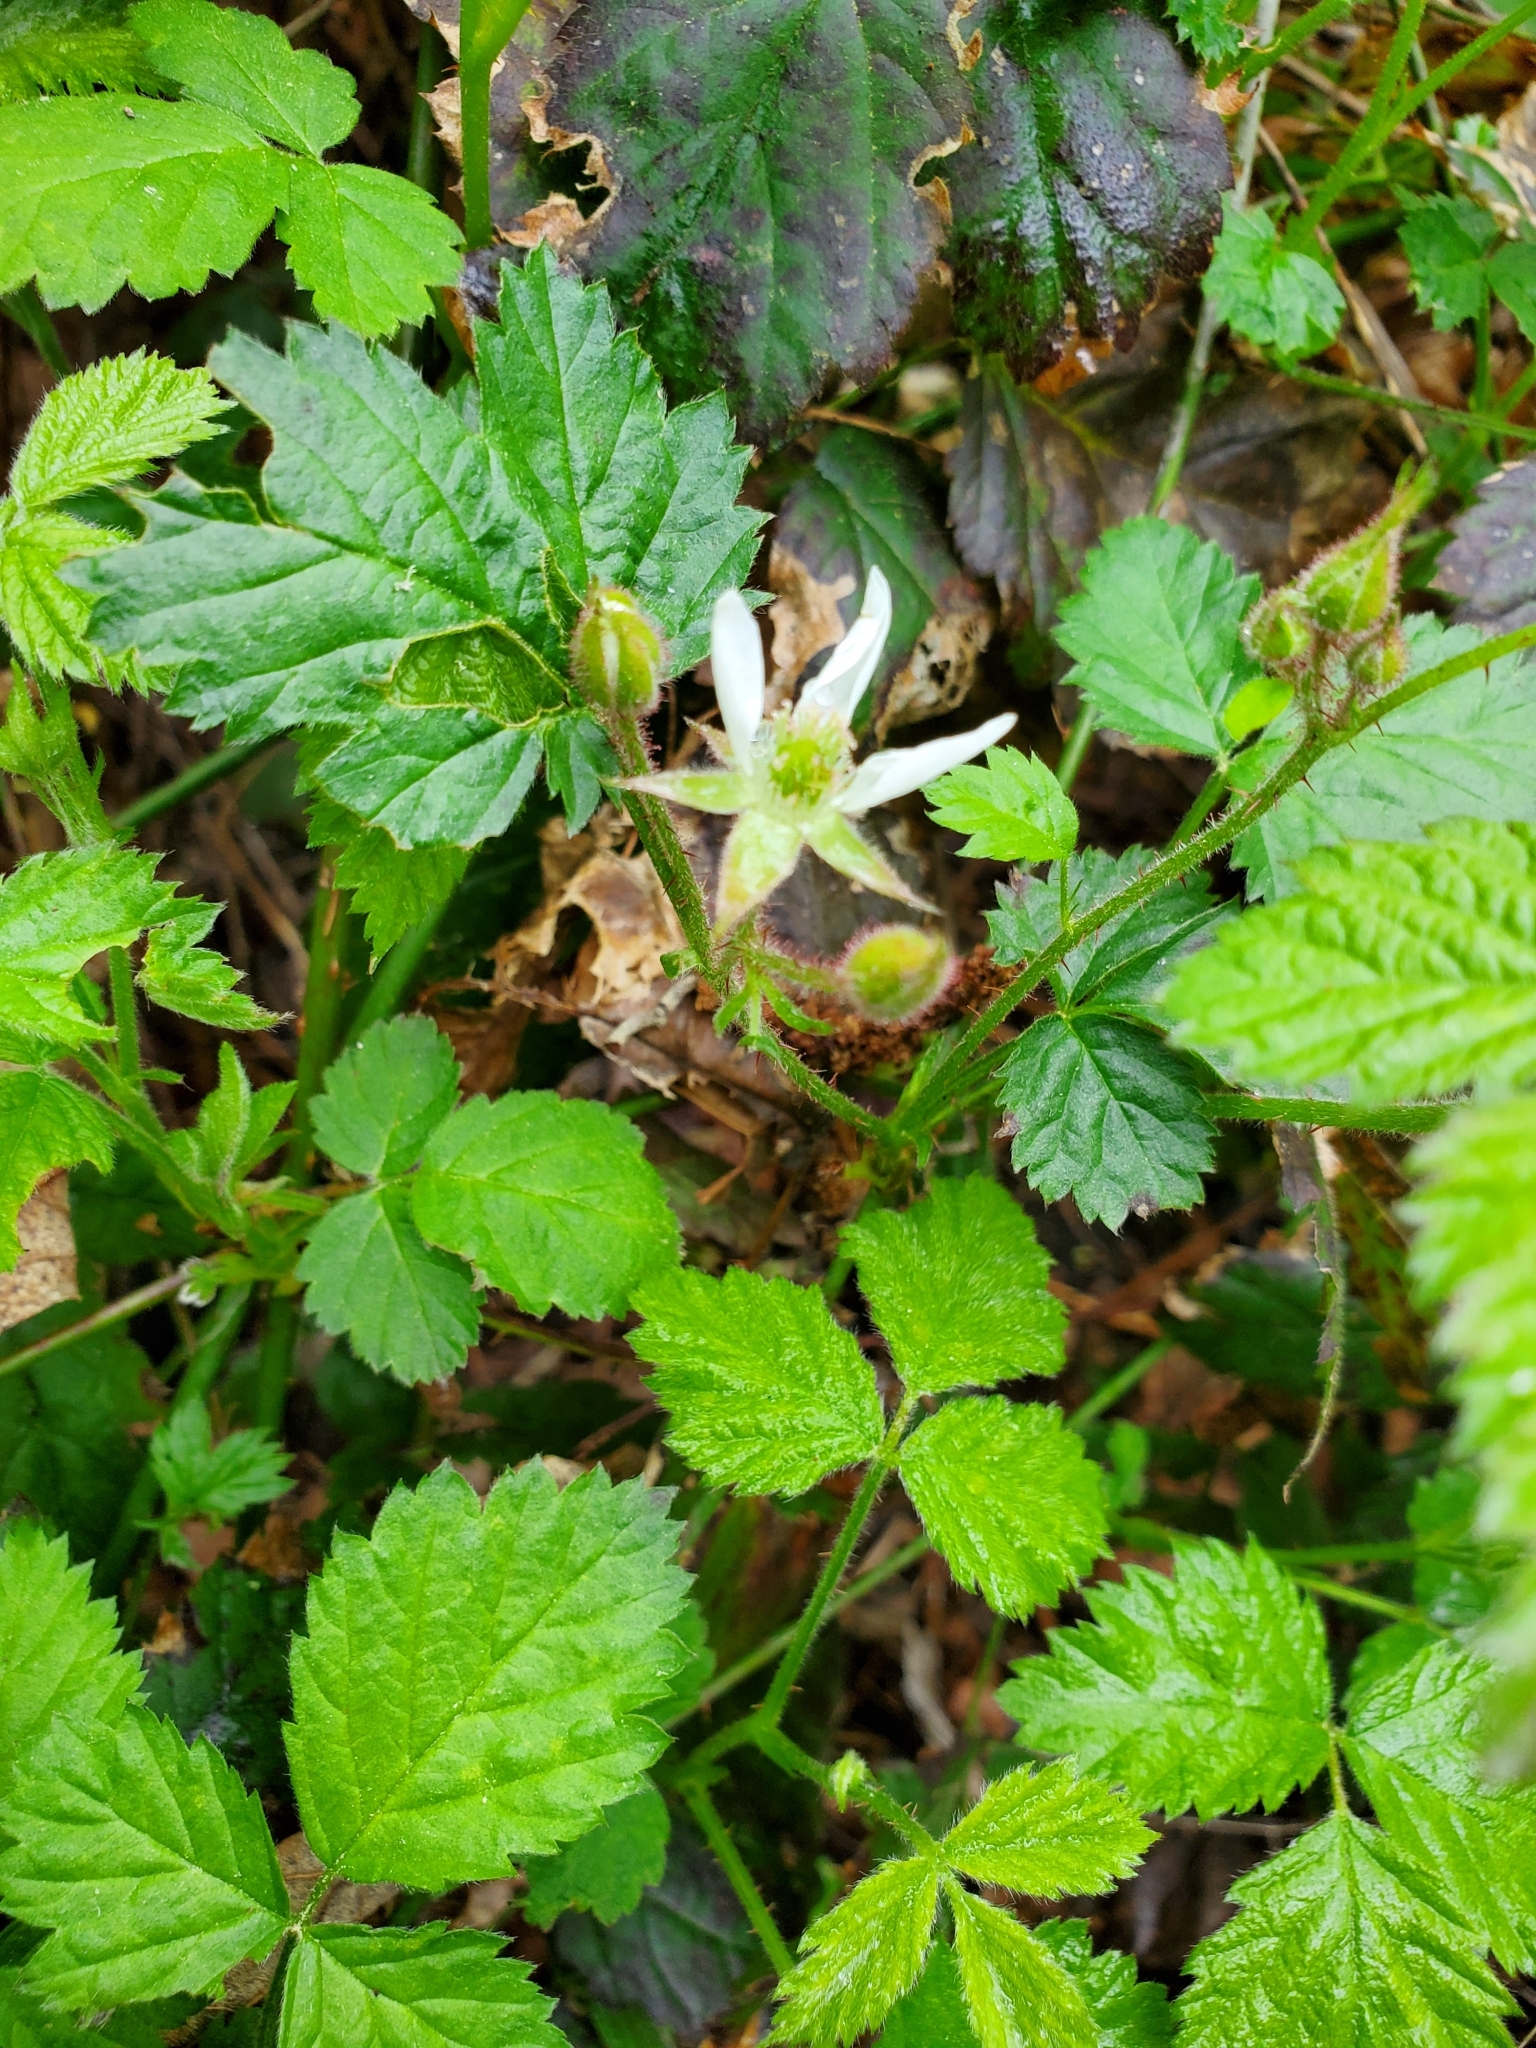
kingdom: Plantae
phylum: Tracheophyta
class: Magnoliopsida
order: Rosales
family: Rosaceae
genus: Rubus
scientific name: Rubus ursinus
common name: Pacific blackberry
